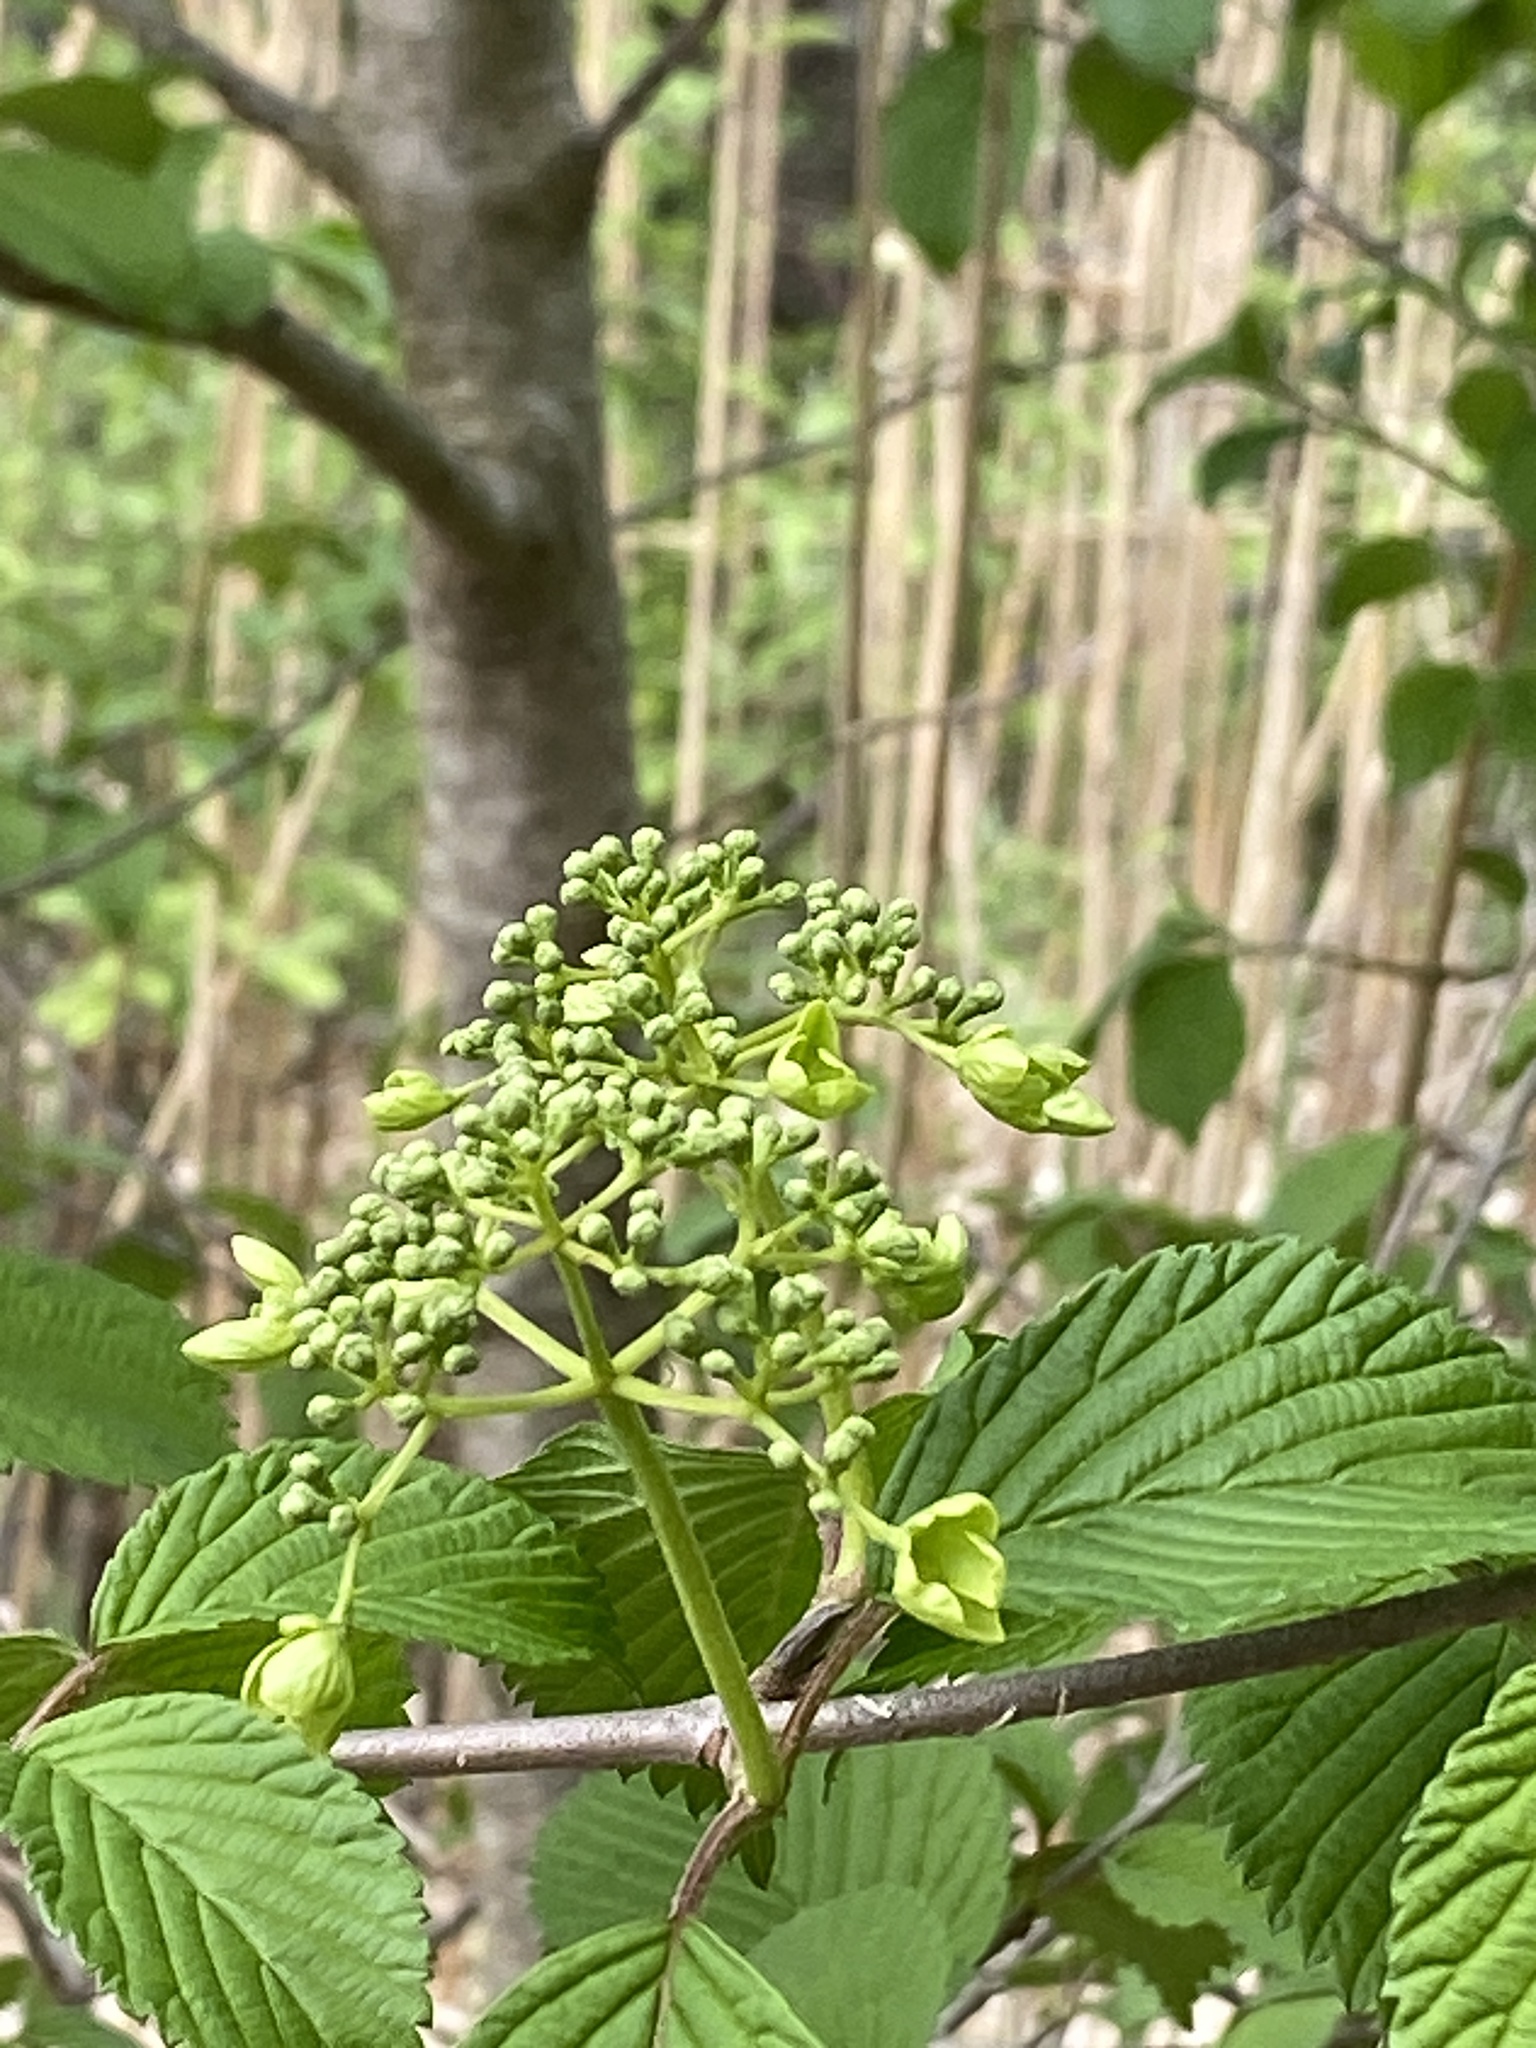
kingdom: Plantae
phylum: Tracheophyta
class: Magnoliopsida
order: Dipsacales
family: Viburnaceae
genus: Viburnum
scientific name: Viburnum plicatum
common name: Japanese snowball
